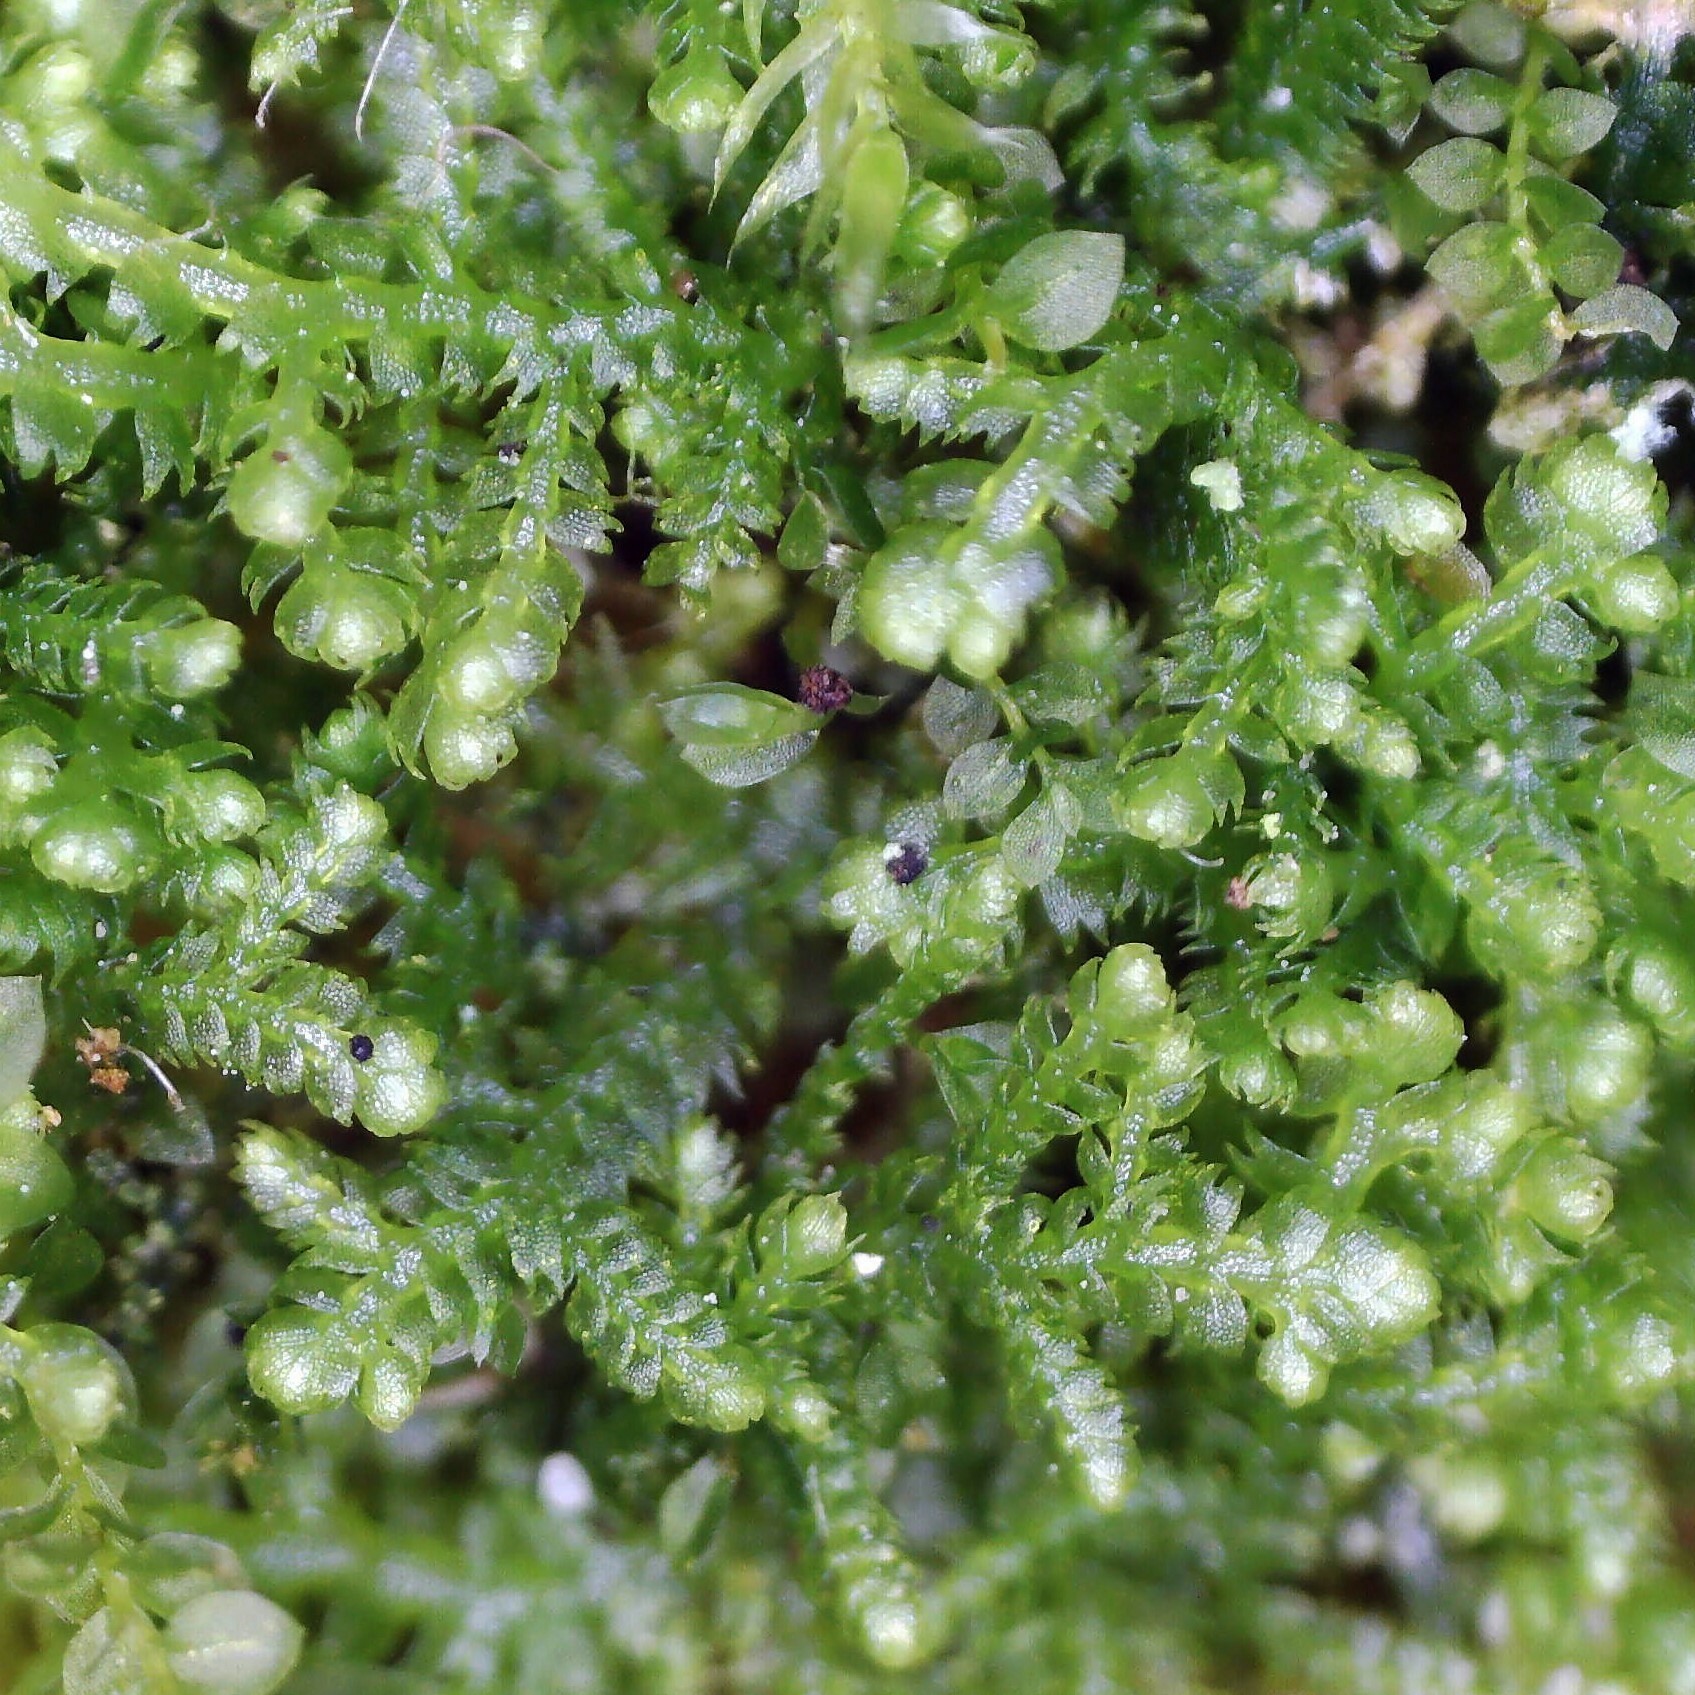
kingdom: Plantae
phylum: Marchantiophyta
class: Jungermanniopsida
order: Jungermanniales
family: Lepidoziaceae
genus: Lepidozia
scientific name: Lepidozia reptans
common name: Creeping fingerwort
